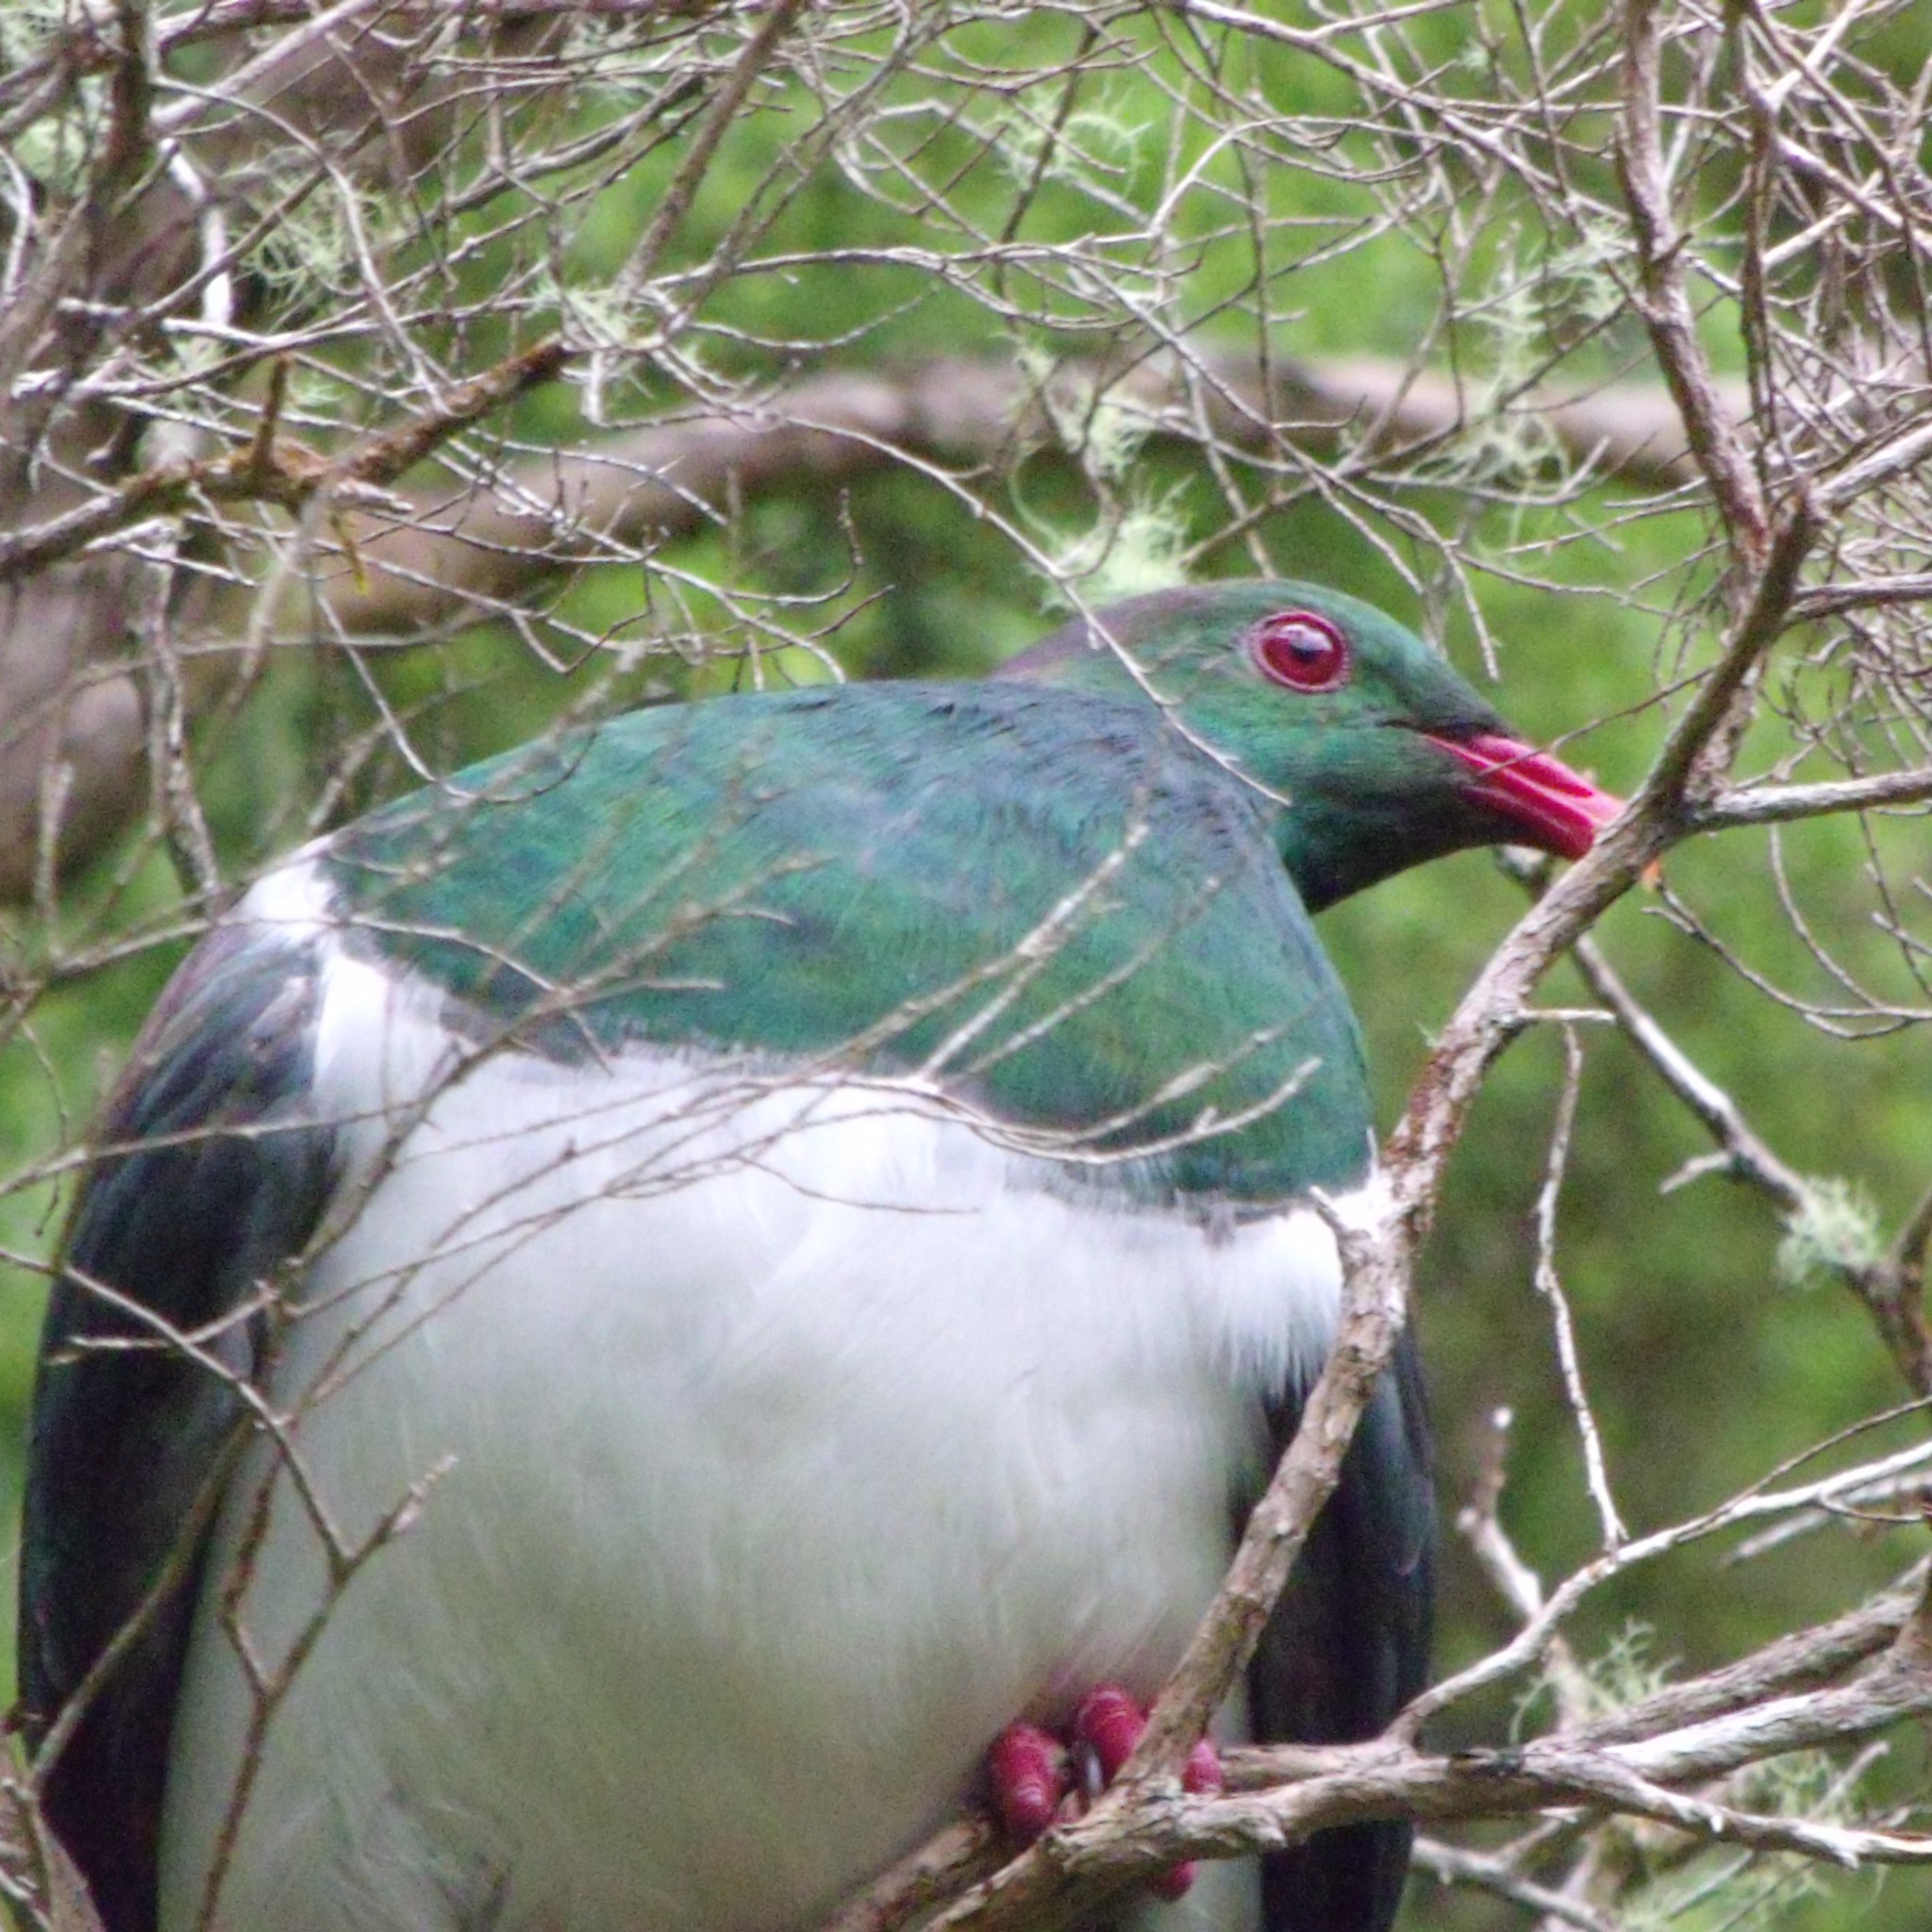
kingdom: Animalia
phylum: Chordata
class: Aves
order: Columbiformes
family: Columbidae
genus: Hemiphaga
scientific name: Hemiphaga novaeseelandiae
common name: New zealand pigeon
